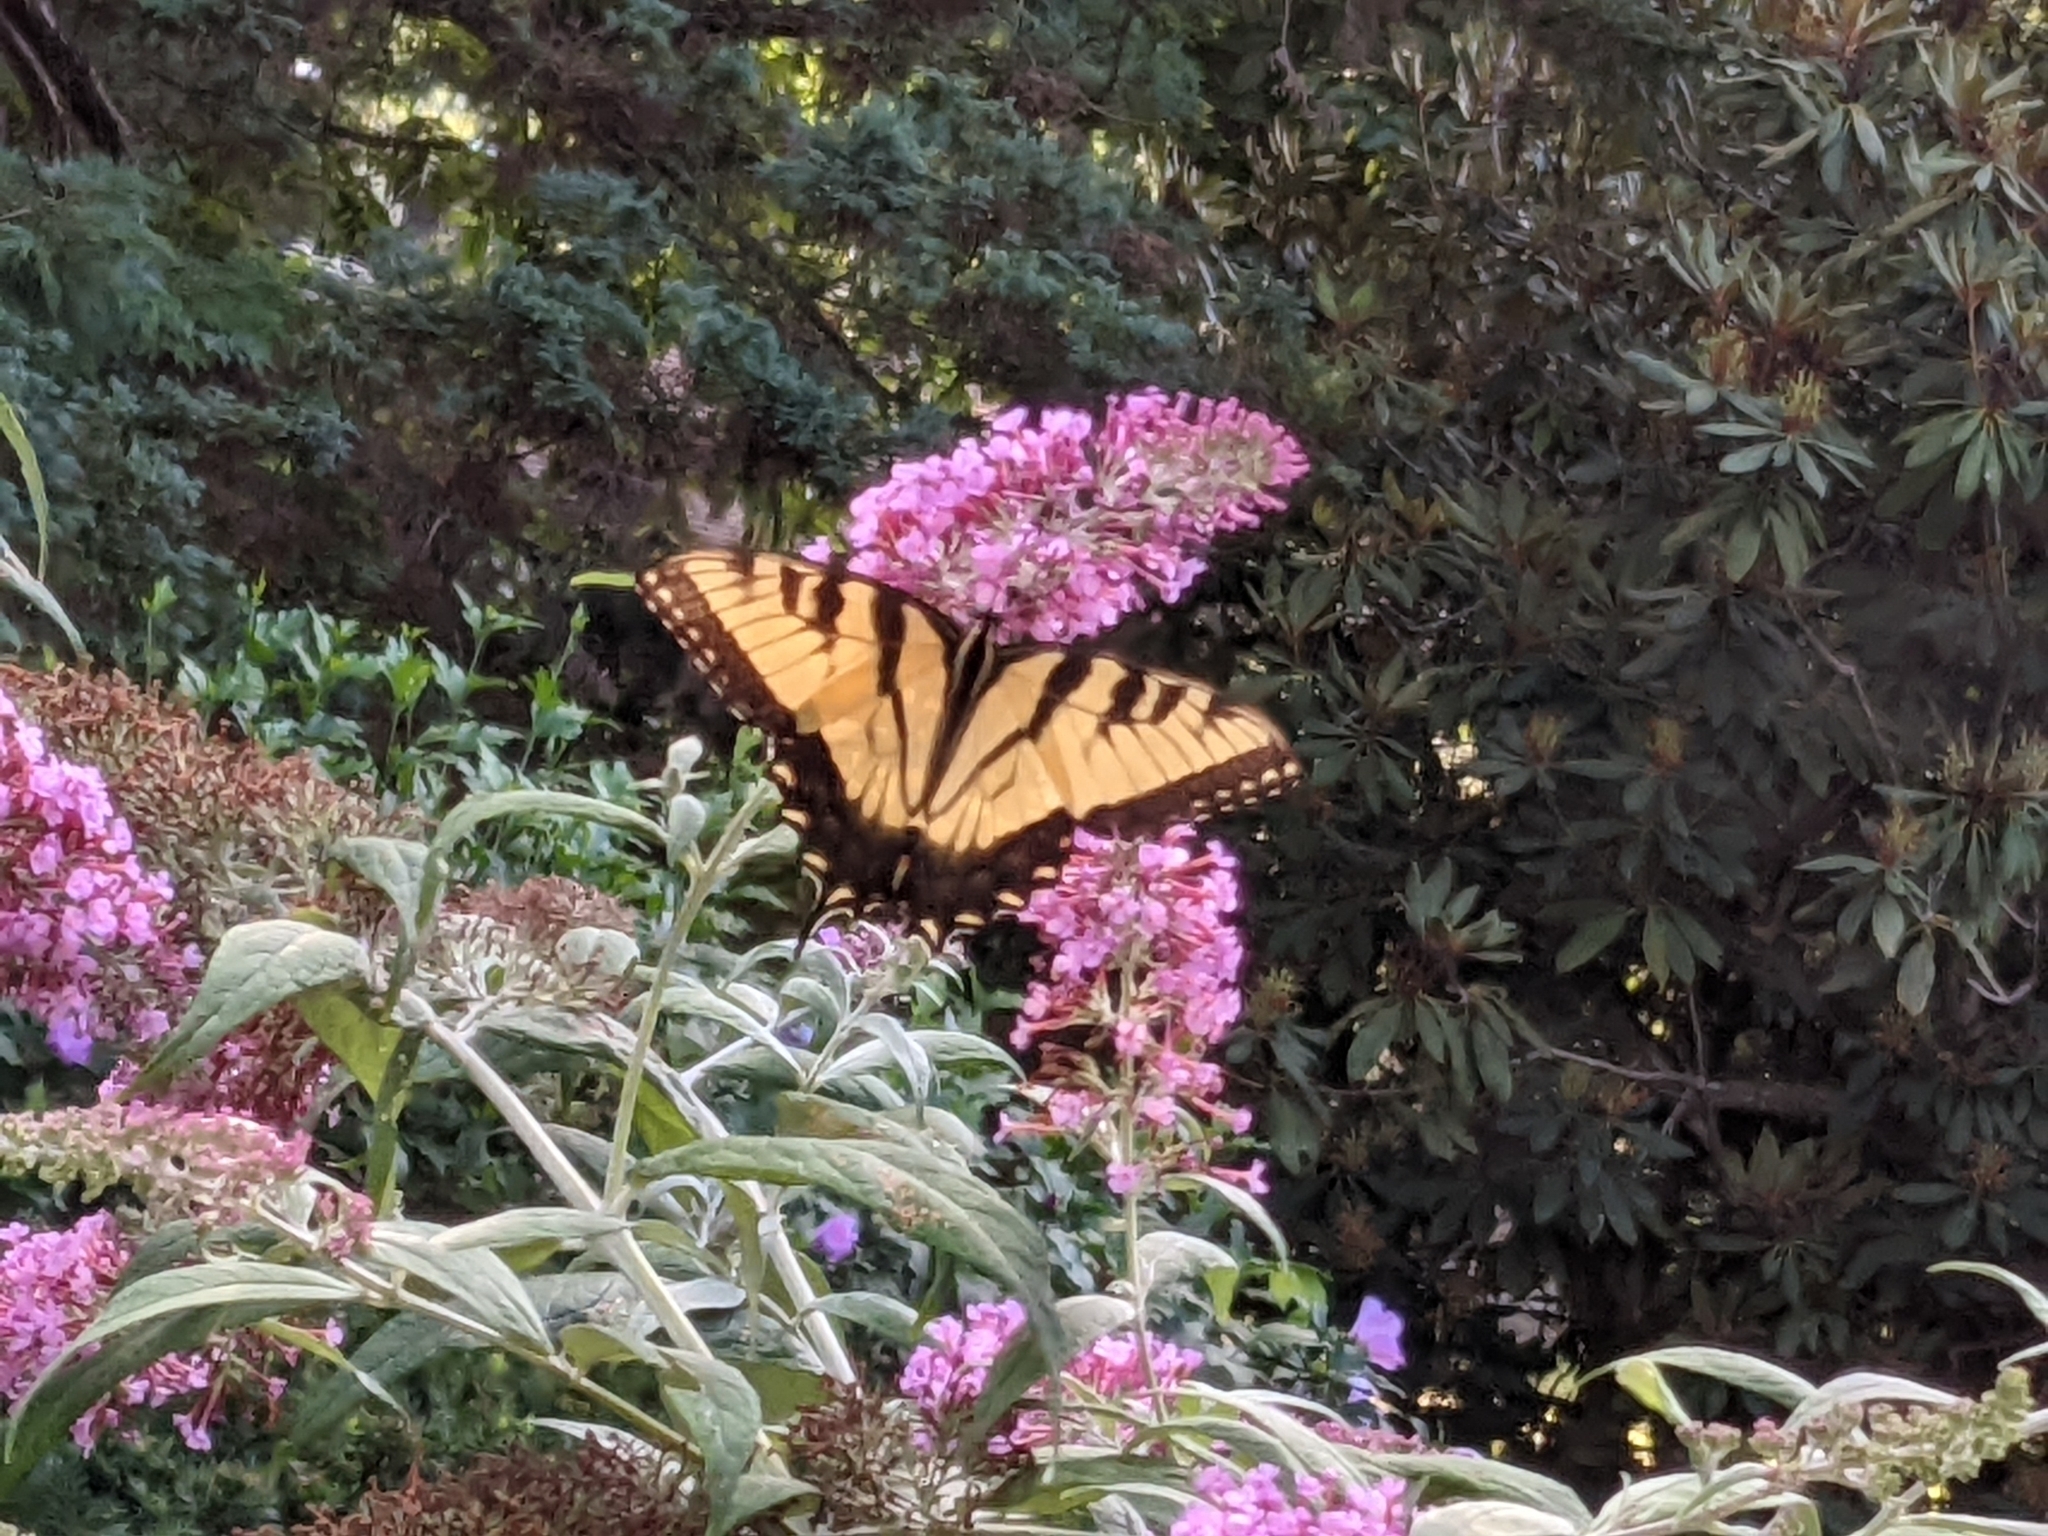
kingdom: Animalia
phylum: Arthropoda
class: Insecta
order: Lepidoptera
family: Papilionidae
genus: Papilio
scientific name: Papilio glaucus
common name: Tiger swallowtail
